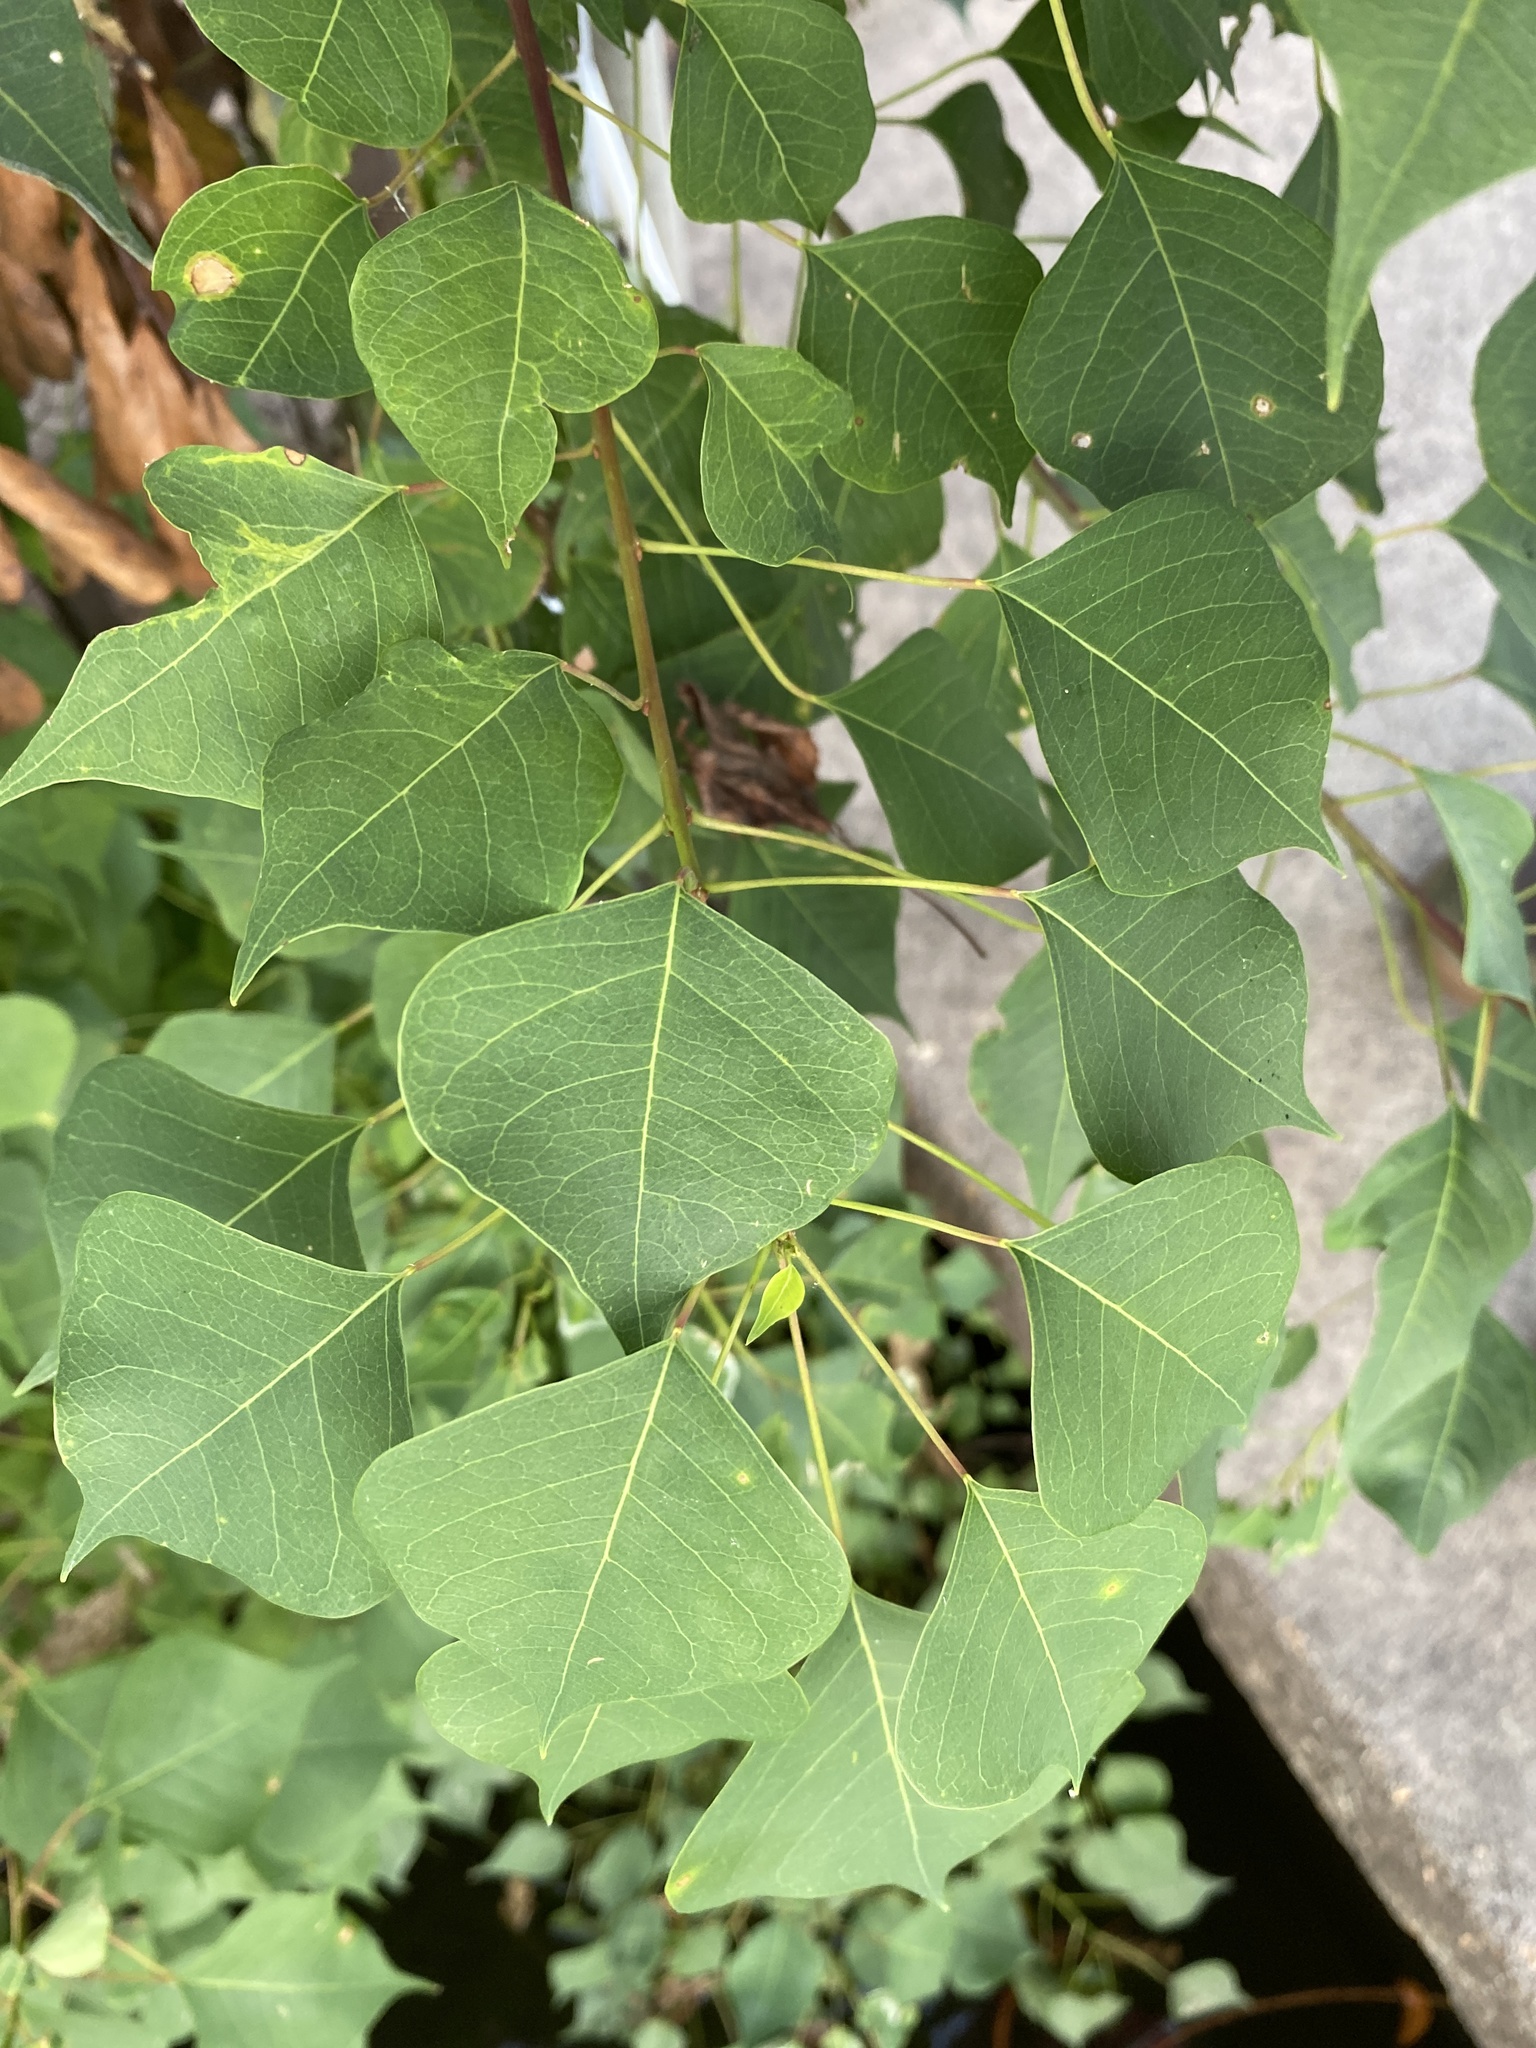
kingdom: Plantae
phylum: Tracheophyta
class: Magnoliopsida
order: Malpighiales
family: Euphorbiaceae
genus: Triadica
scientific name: Triadica sebifera
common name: Chinese tallow
